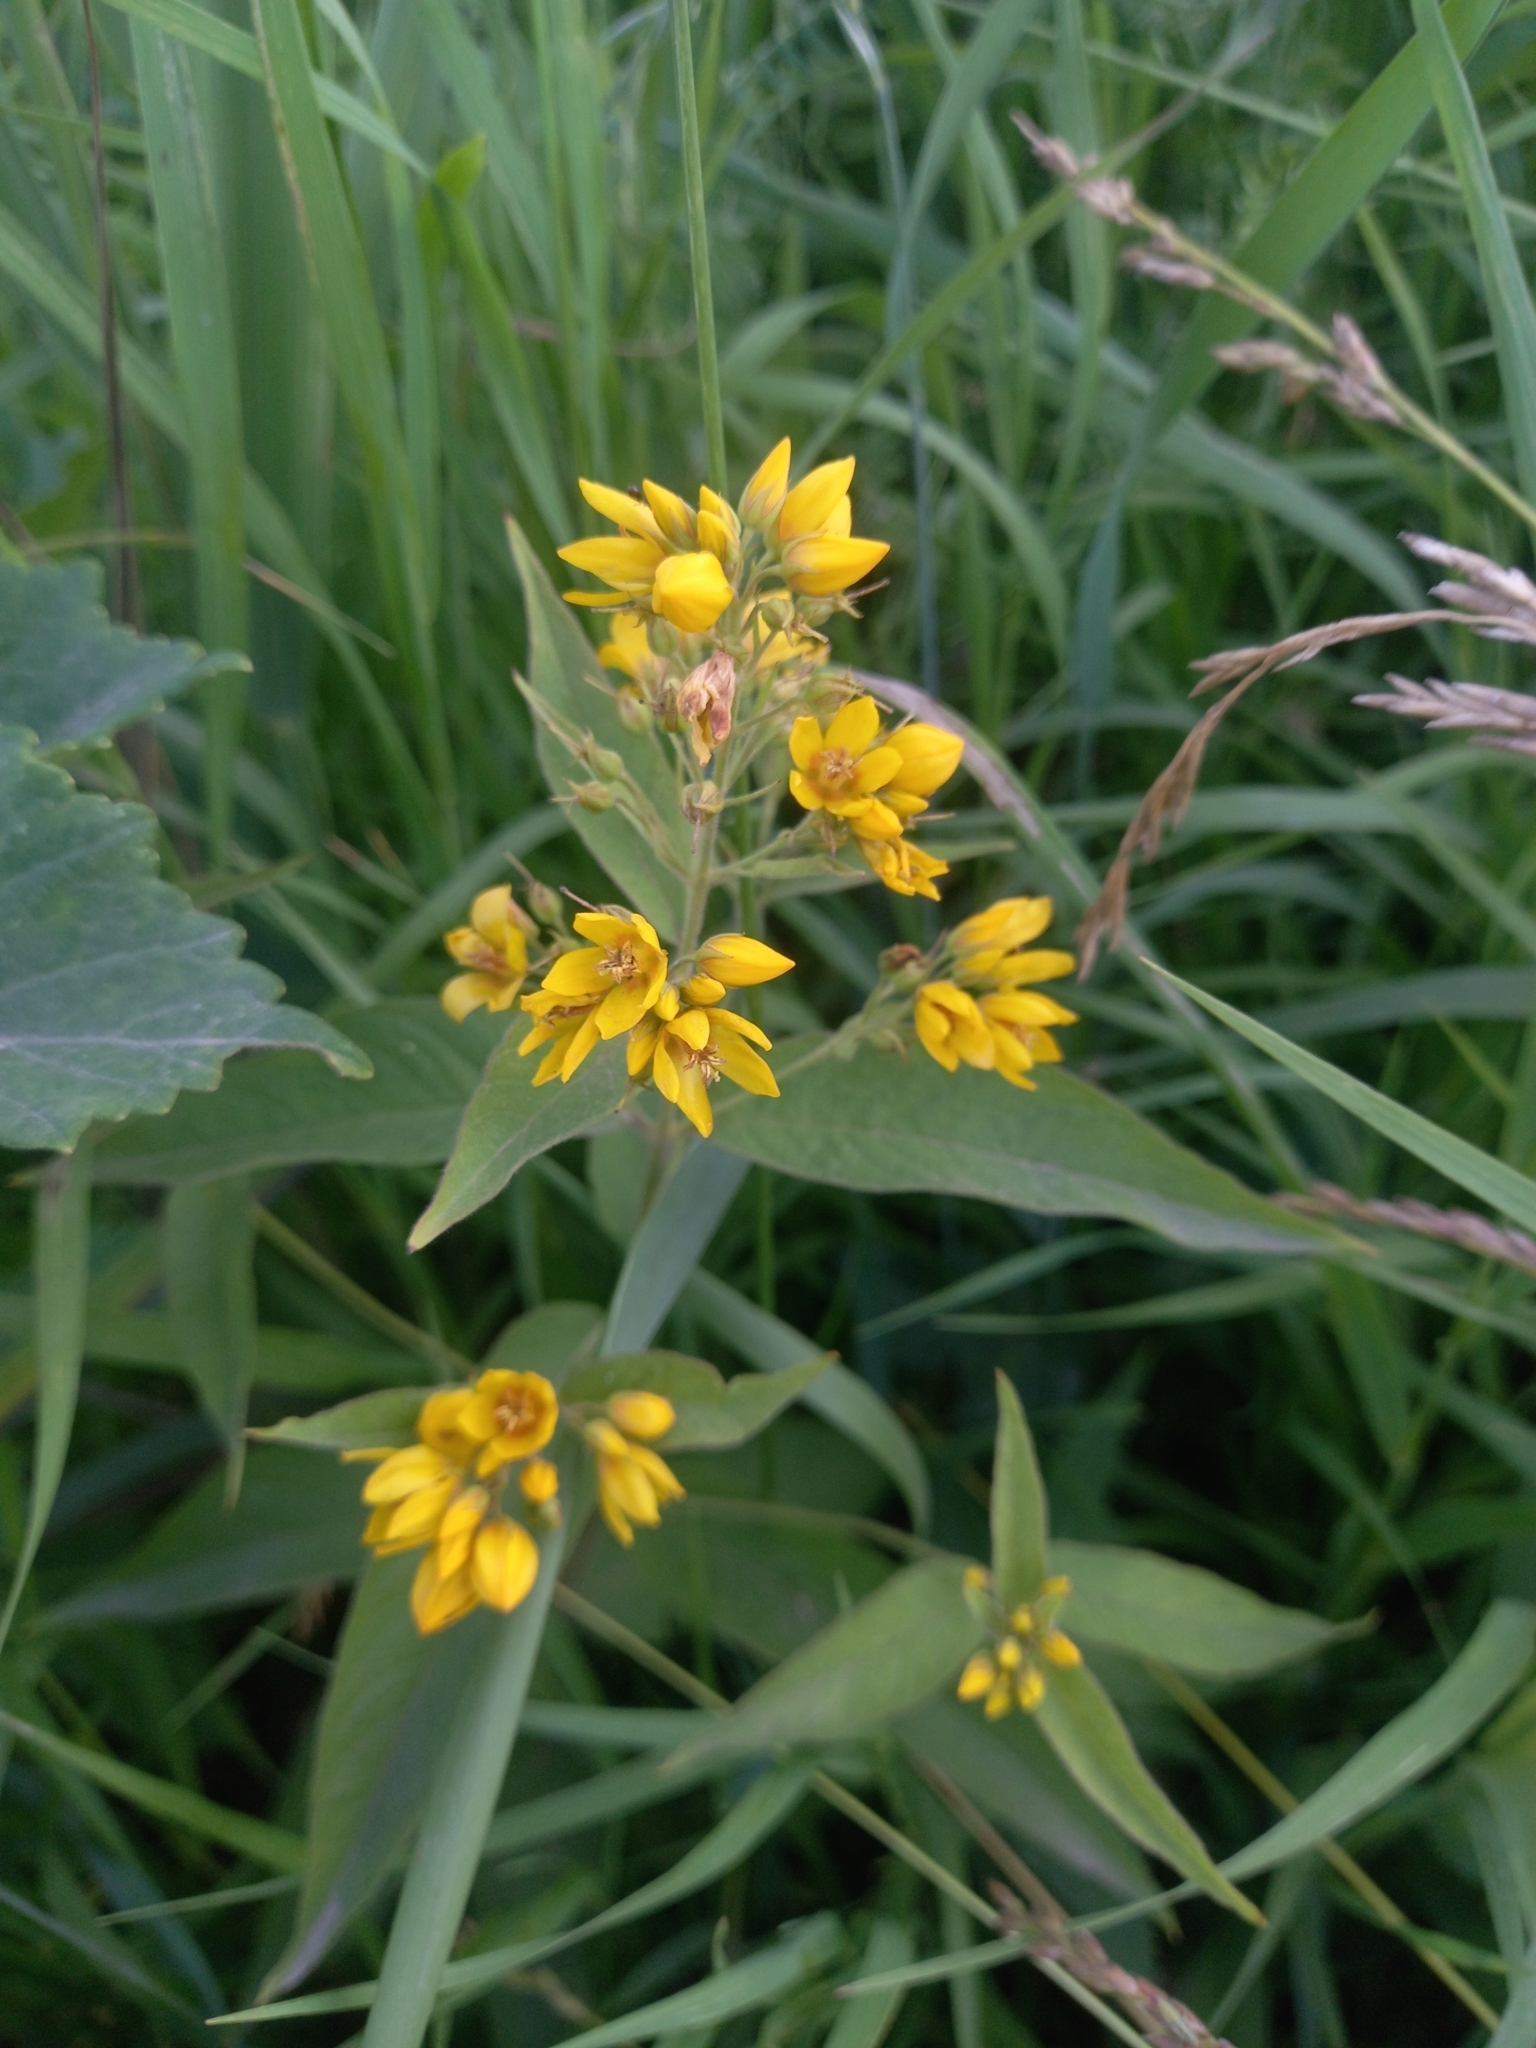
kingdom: Plantae
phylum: Tracheophyta
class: Magnoliopsida
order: Ericales
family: Primulaceae
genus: Lysimachia
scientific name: Lysimachia vulgaris
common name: Yellow loosestrife
